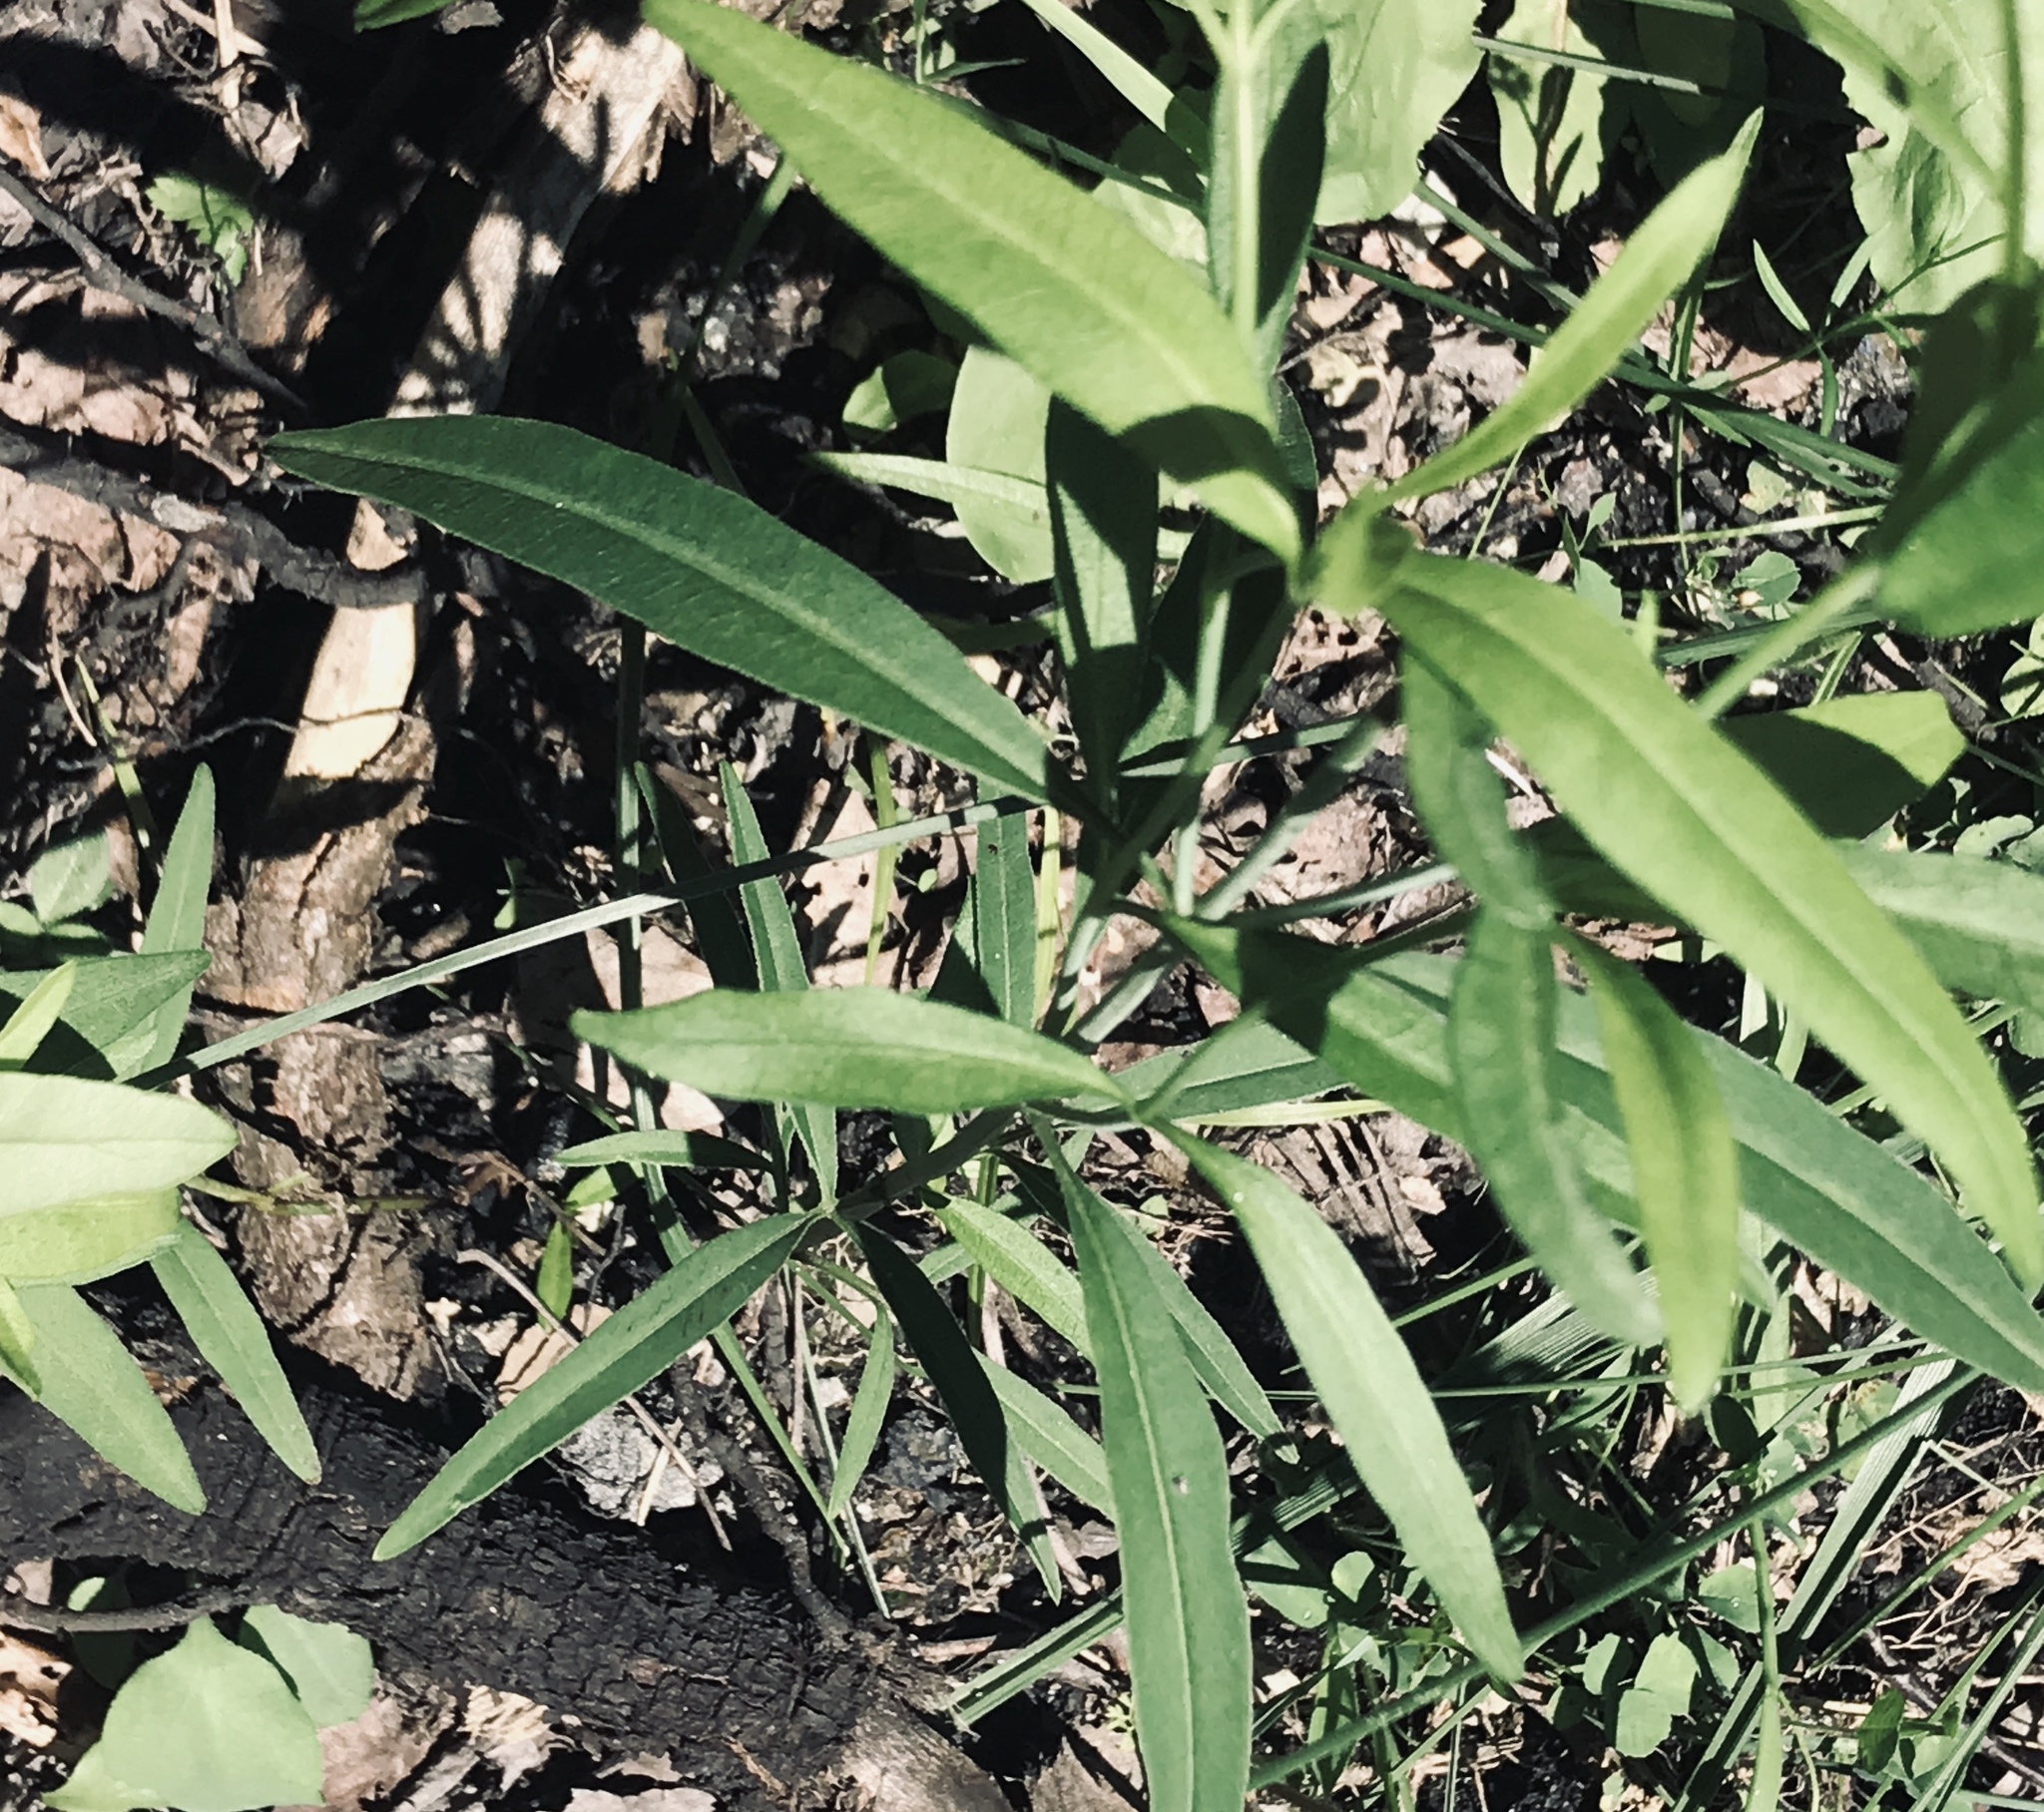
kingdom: Plantae
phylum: Tracheophyta
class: Magnoliopsida
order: Asterales
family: Asteraceae
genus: Coreopsis
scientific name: Coreopsis tripteris
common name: Tall coreopsis
